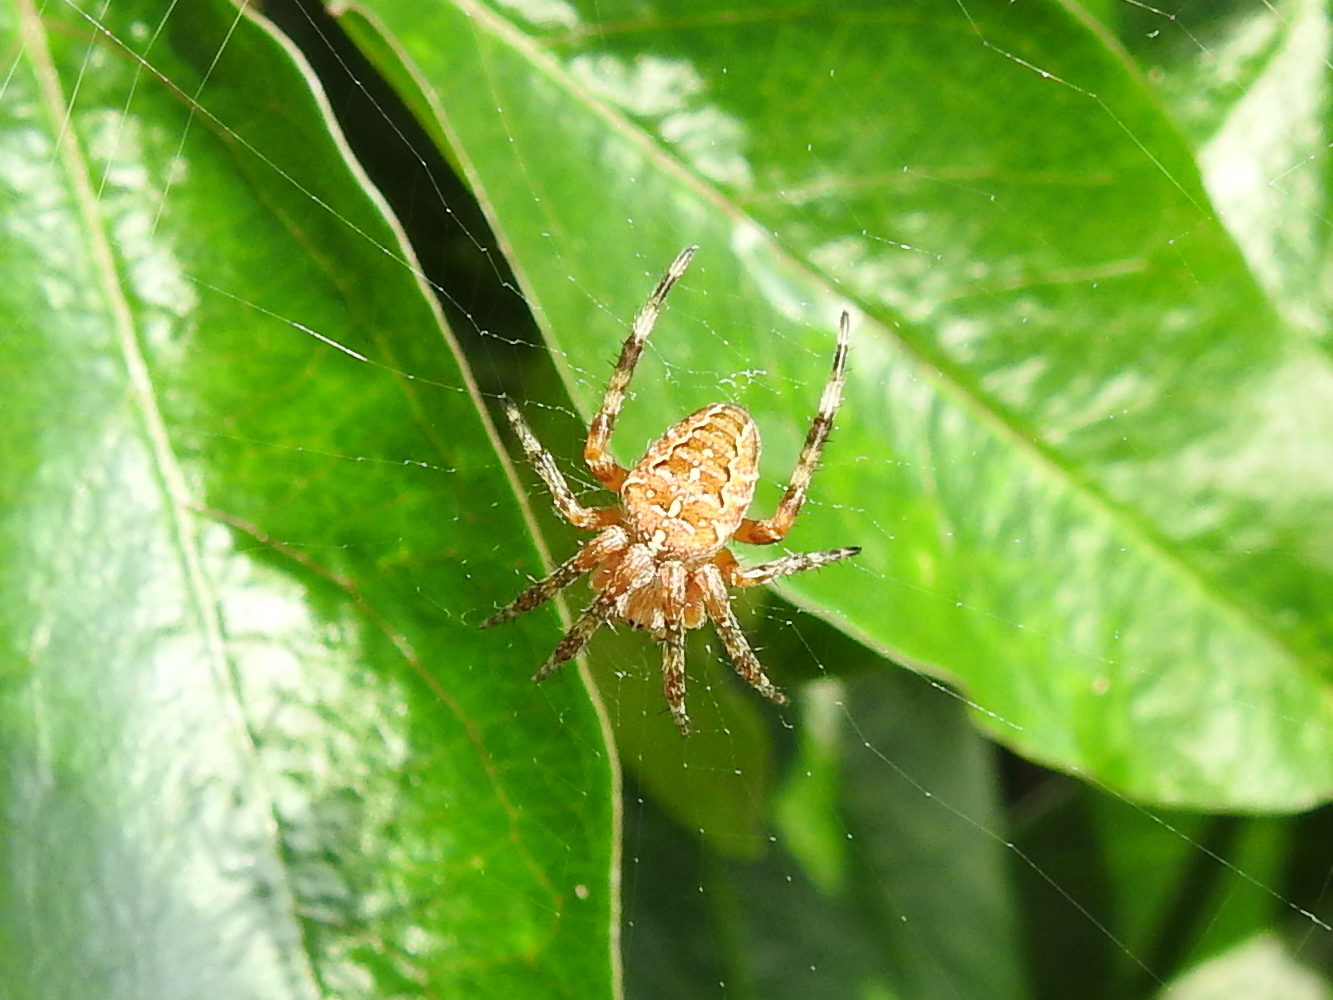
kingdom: Animalia
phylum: Arthropoda
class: Arachnida
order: Araneae
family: Araneidae
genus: Araneus
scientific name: Araneus diadematus
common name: Cross orbweaver
